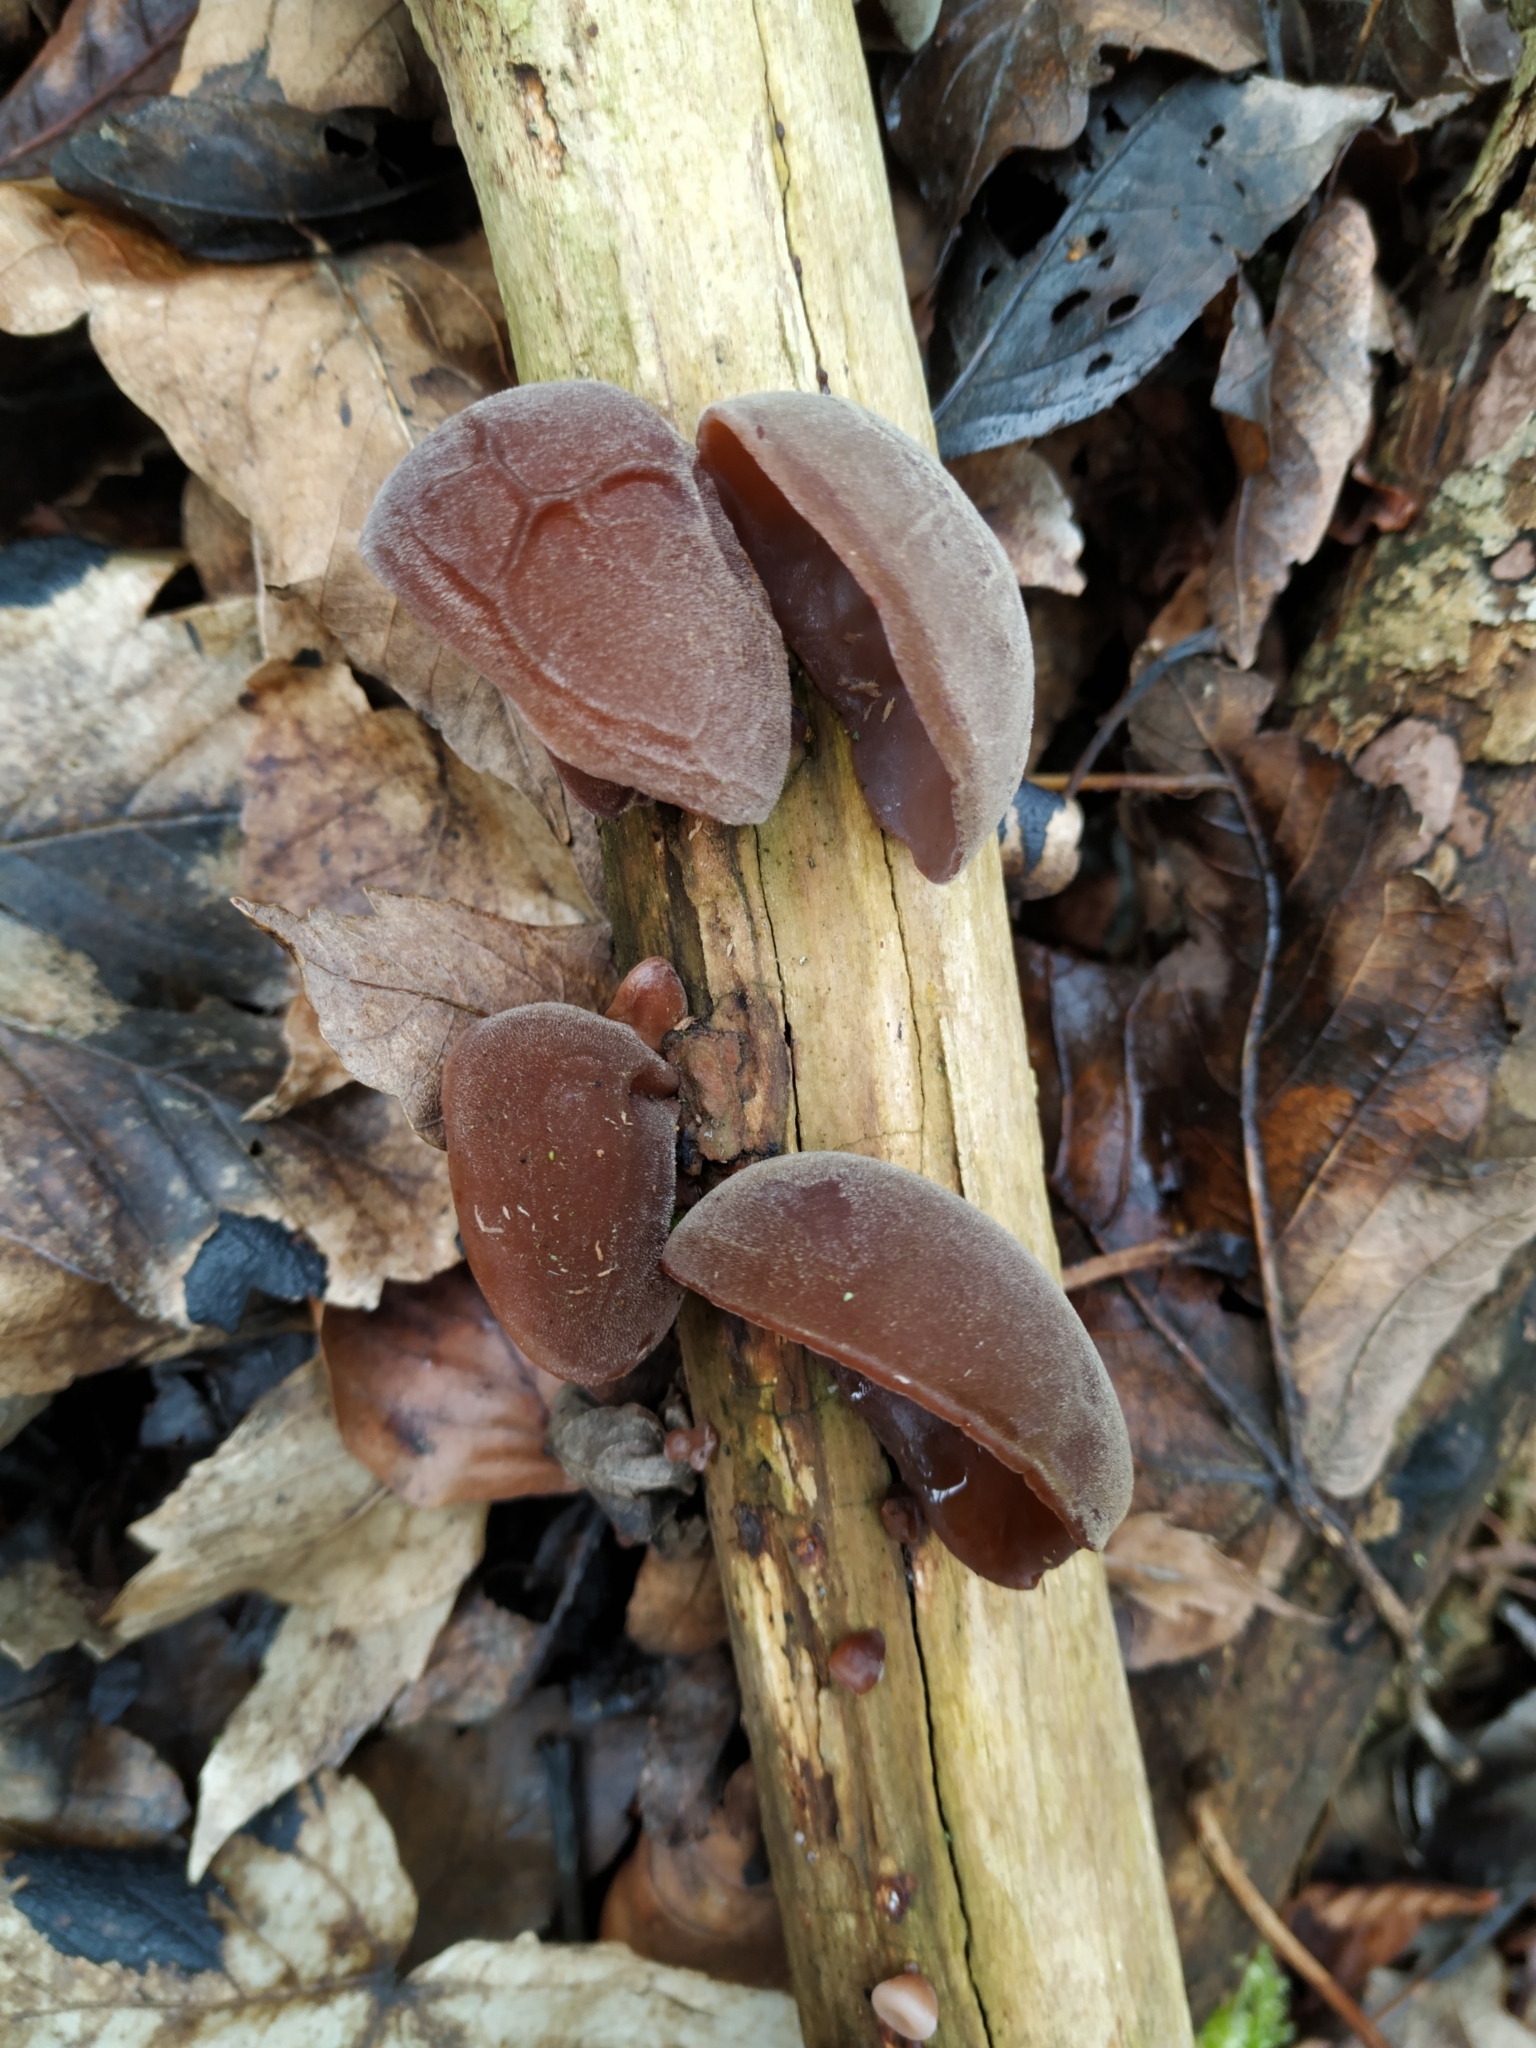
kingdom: Fungi
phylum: Basidiomycota
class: Agaricomycetes
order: Auriculariales
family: Auriculariaceae
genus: Auricularia
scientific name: Auricularia auricula-judae
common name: Jelly ear
